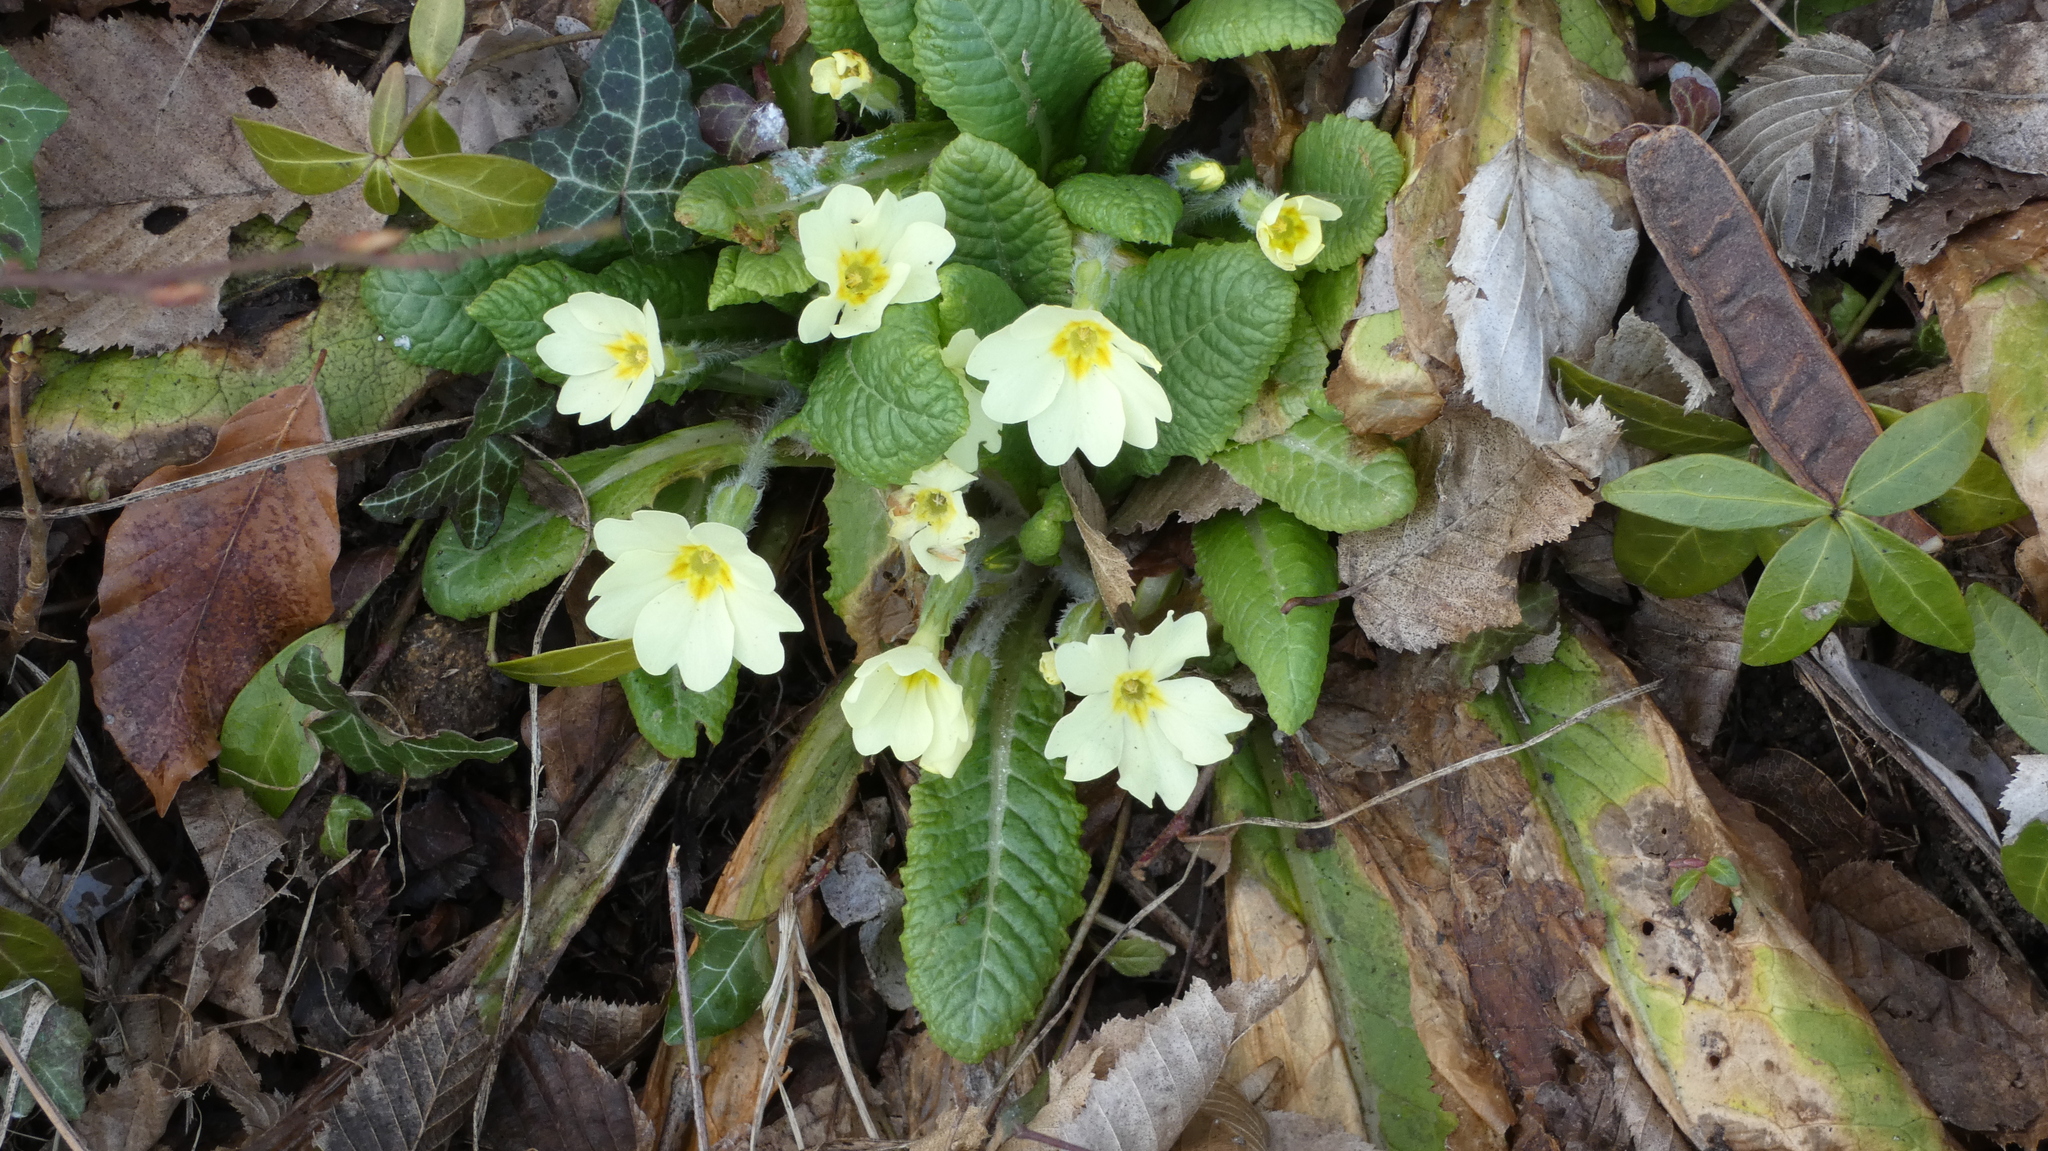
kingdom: Plantae
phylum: Tracheophyta
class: Magnoliopsida
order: Ericales
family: Primulaceae
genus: Primula
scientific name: Primula vulgaris
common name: Primrose
